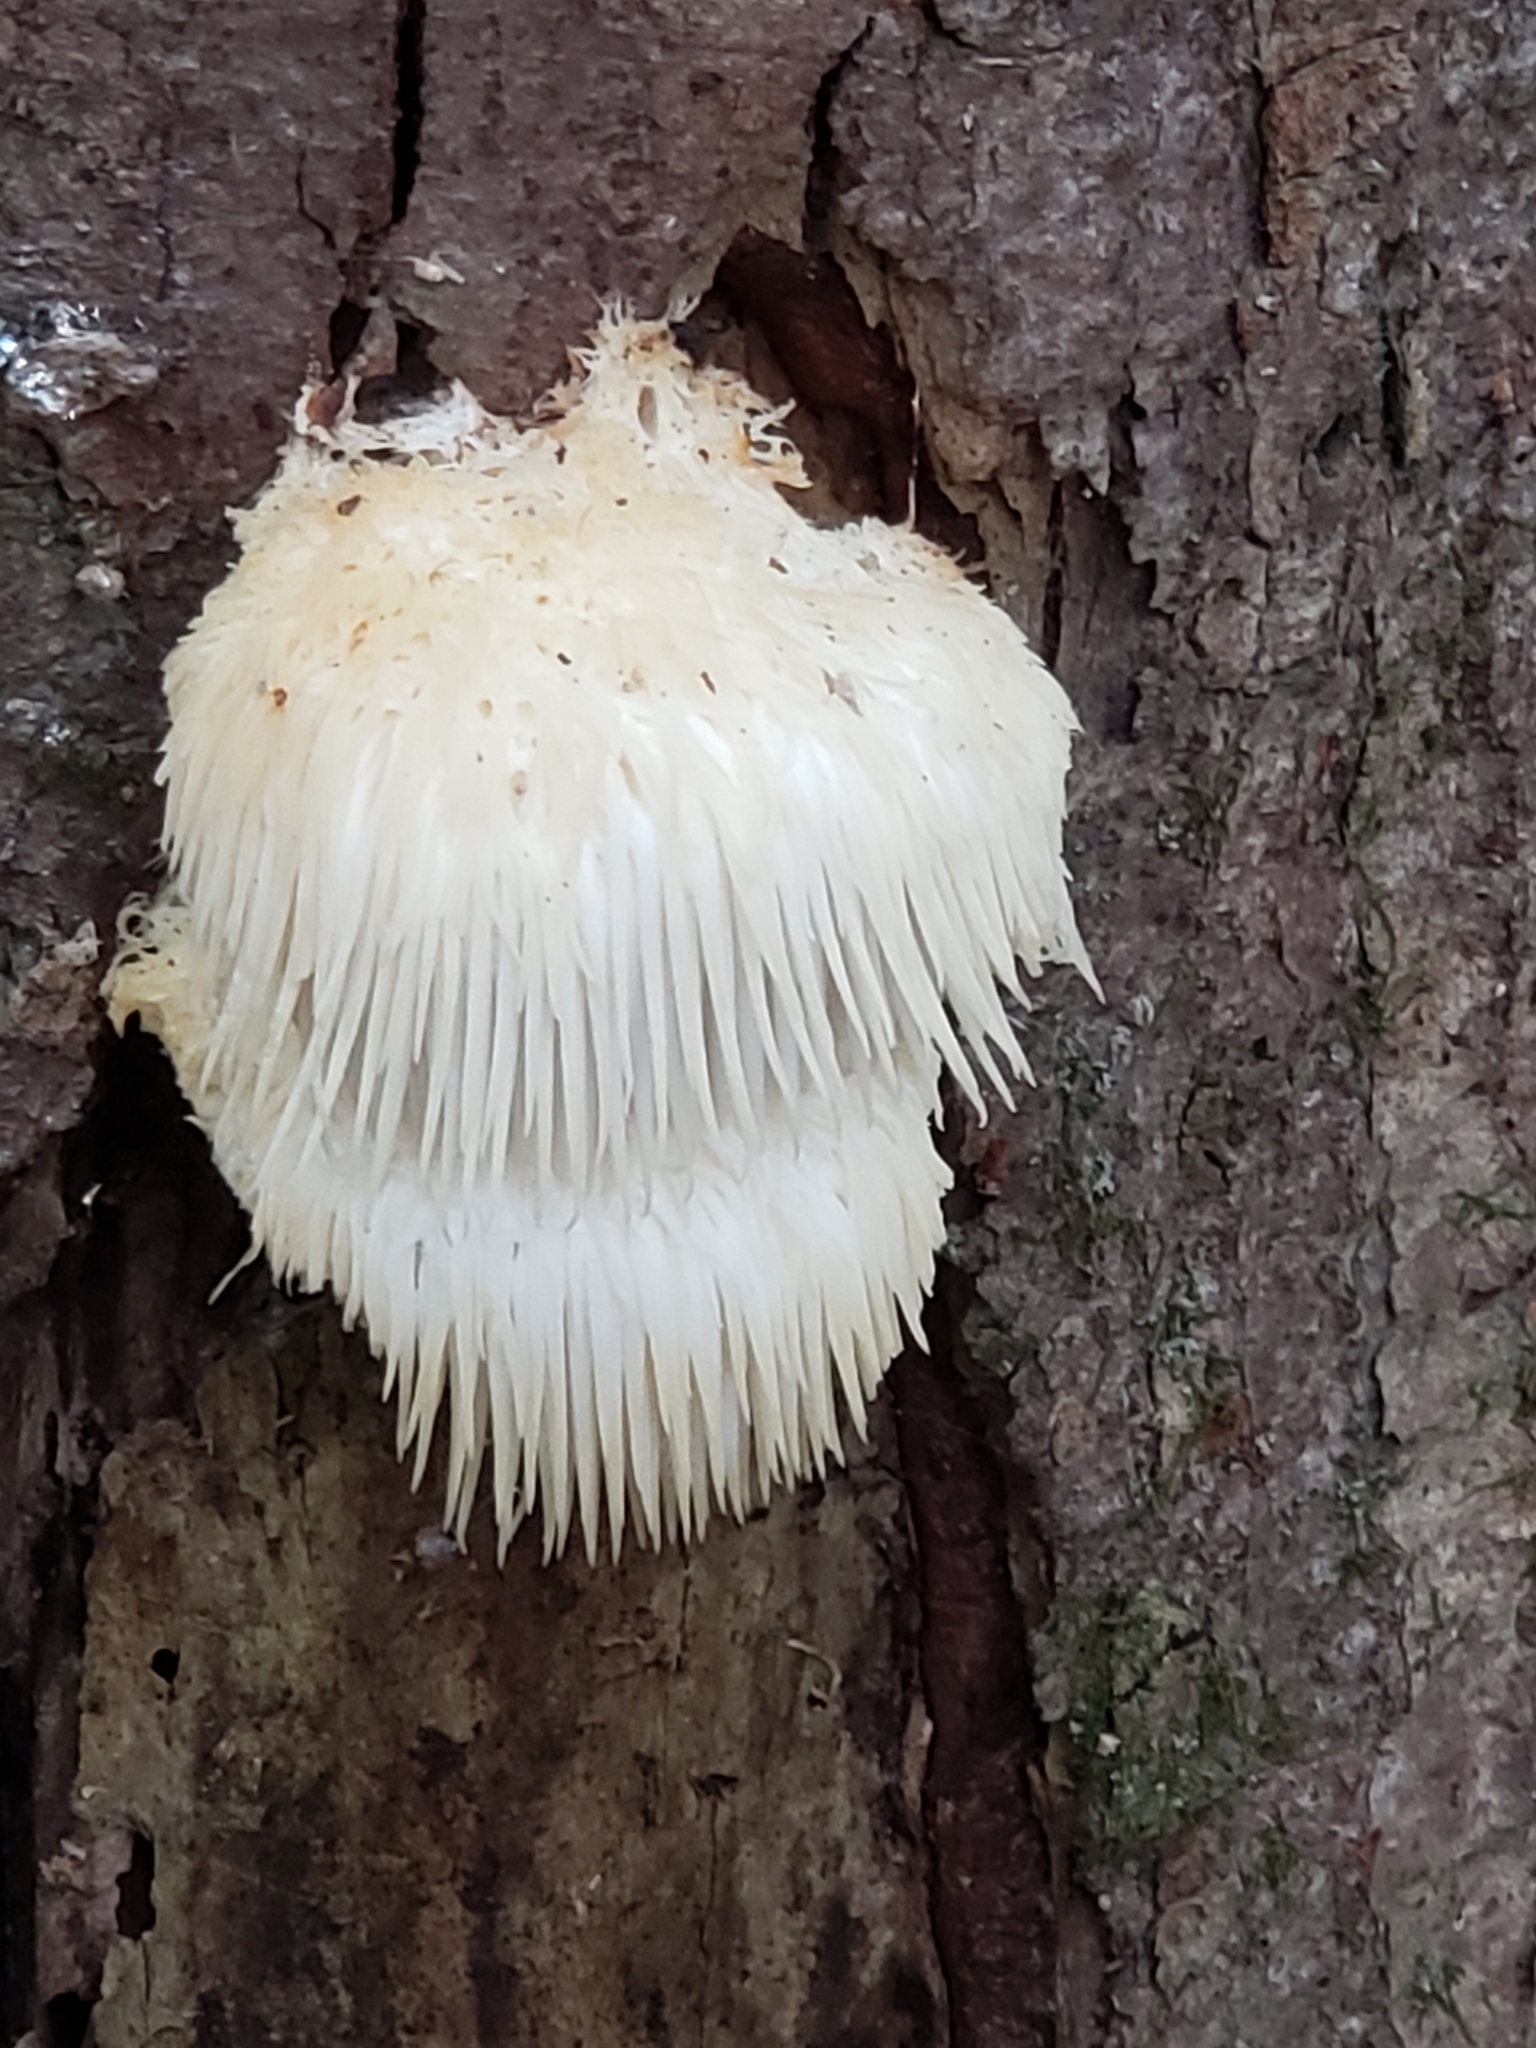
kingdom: Fungi
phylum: Basidiomycota
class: Agaricomycetes
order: Russulales
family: Hericiaceae
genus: Hericium
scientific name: Hericium erinaceus
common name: Bearded tooth
